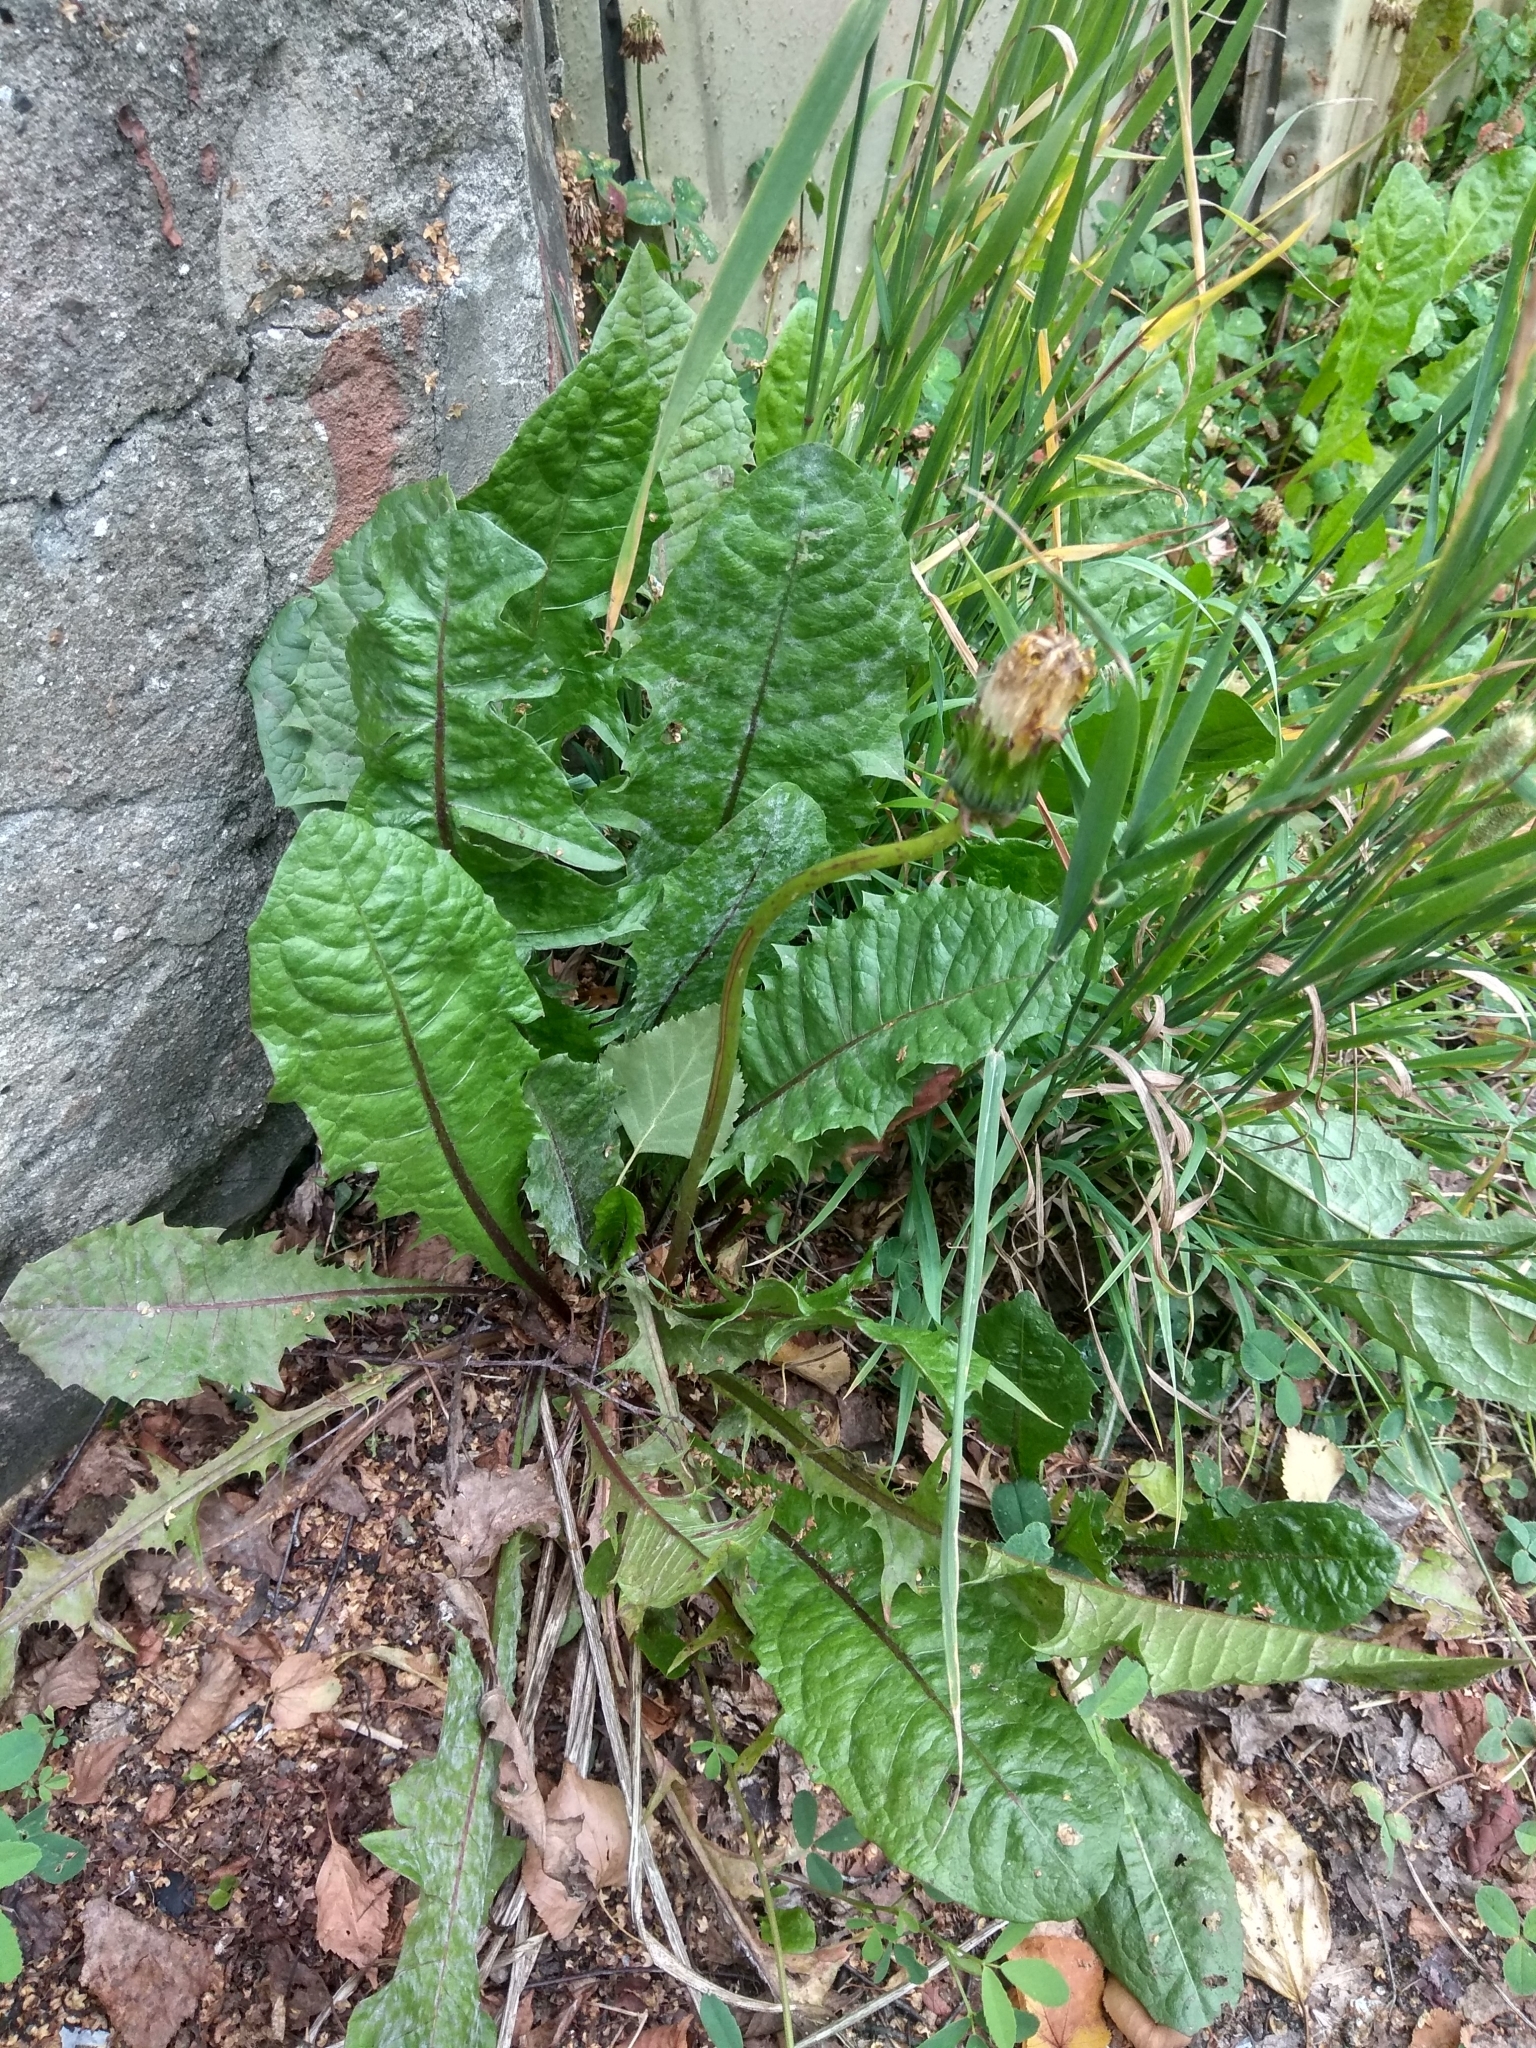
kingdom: Plantae
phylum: Tracheophyta
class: Magnoliopsida
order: Asterales
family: Asteraceae
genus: Taraxacum
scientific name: Taraxacum officinale
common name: Common dandelion
